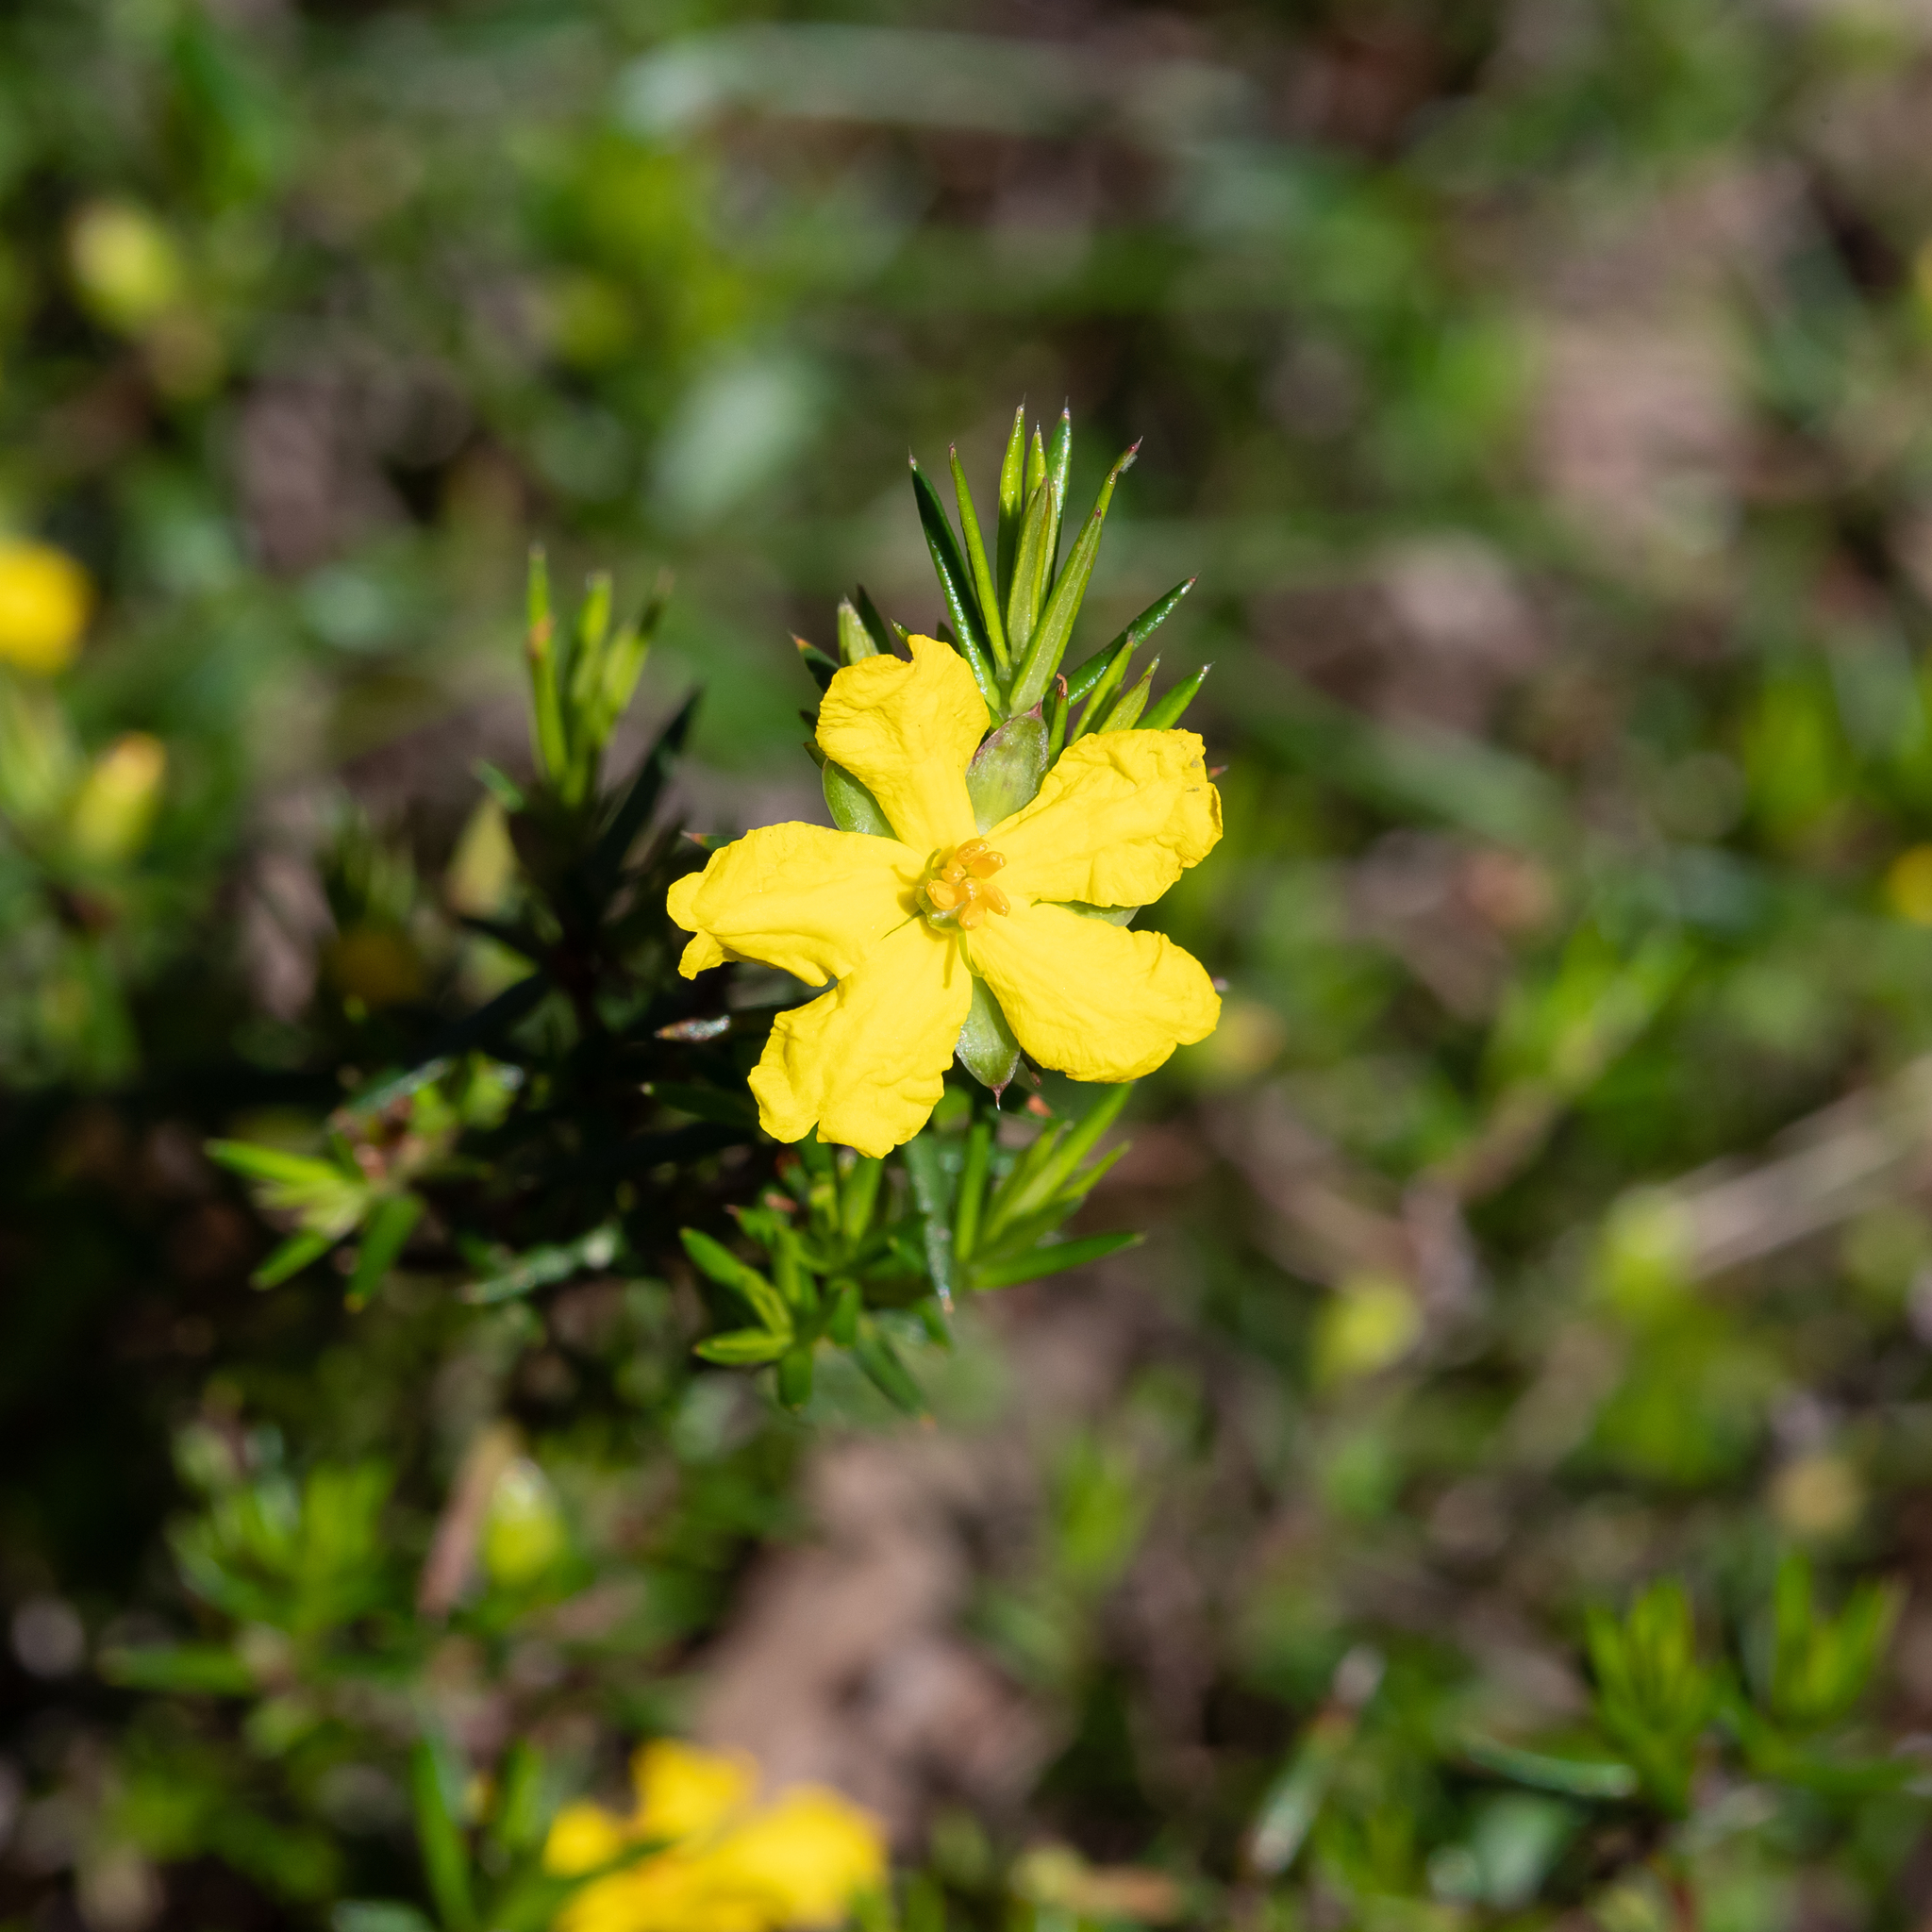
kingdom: Plantae
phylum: Tracheophyta
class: Magnoliopsida
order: Dilleniales
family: Dilleniaceae
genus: Hibbertia
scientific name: Hibbertia exutiacies
